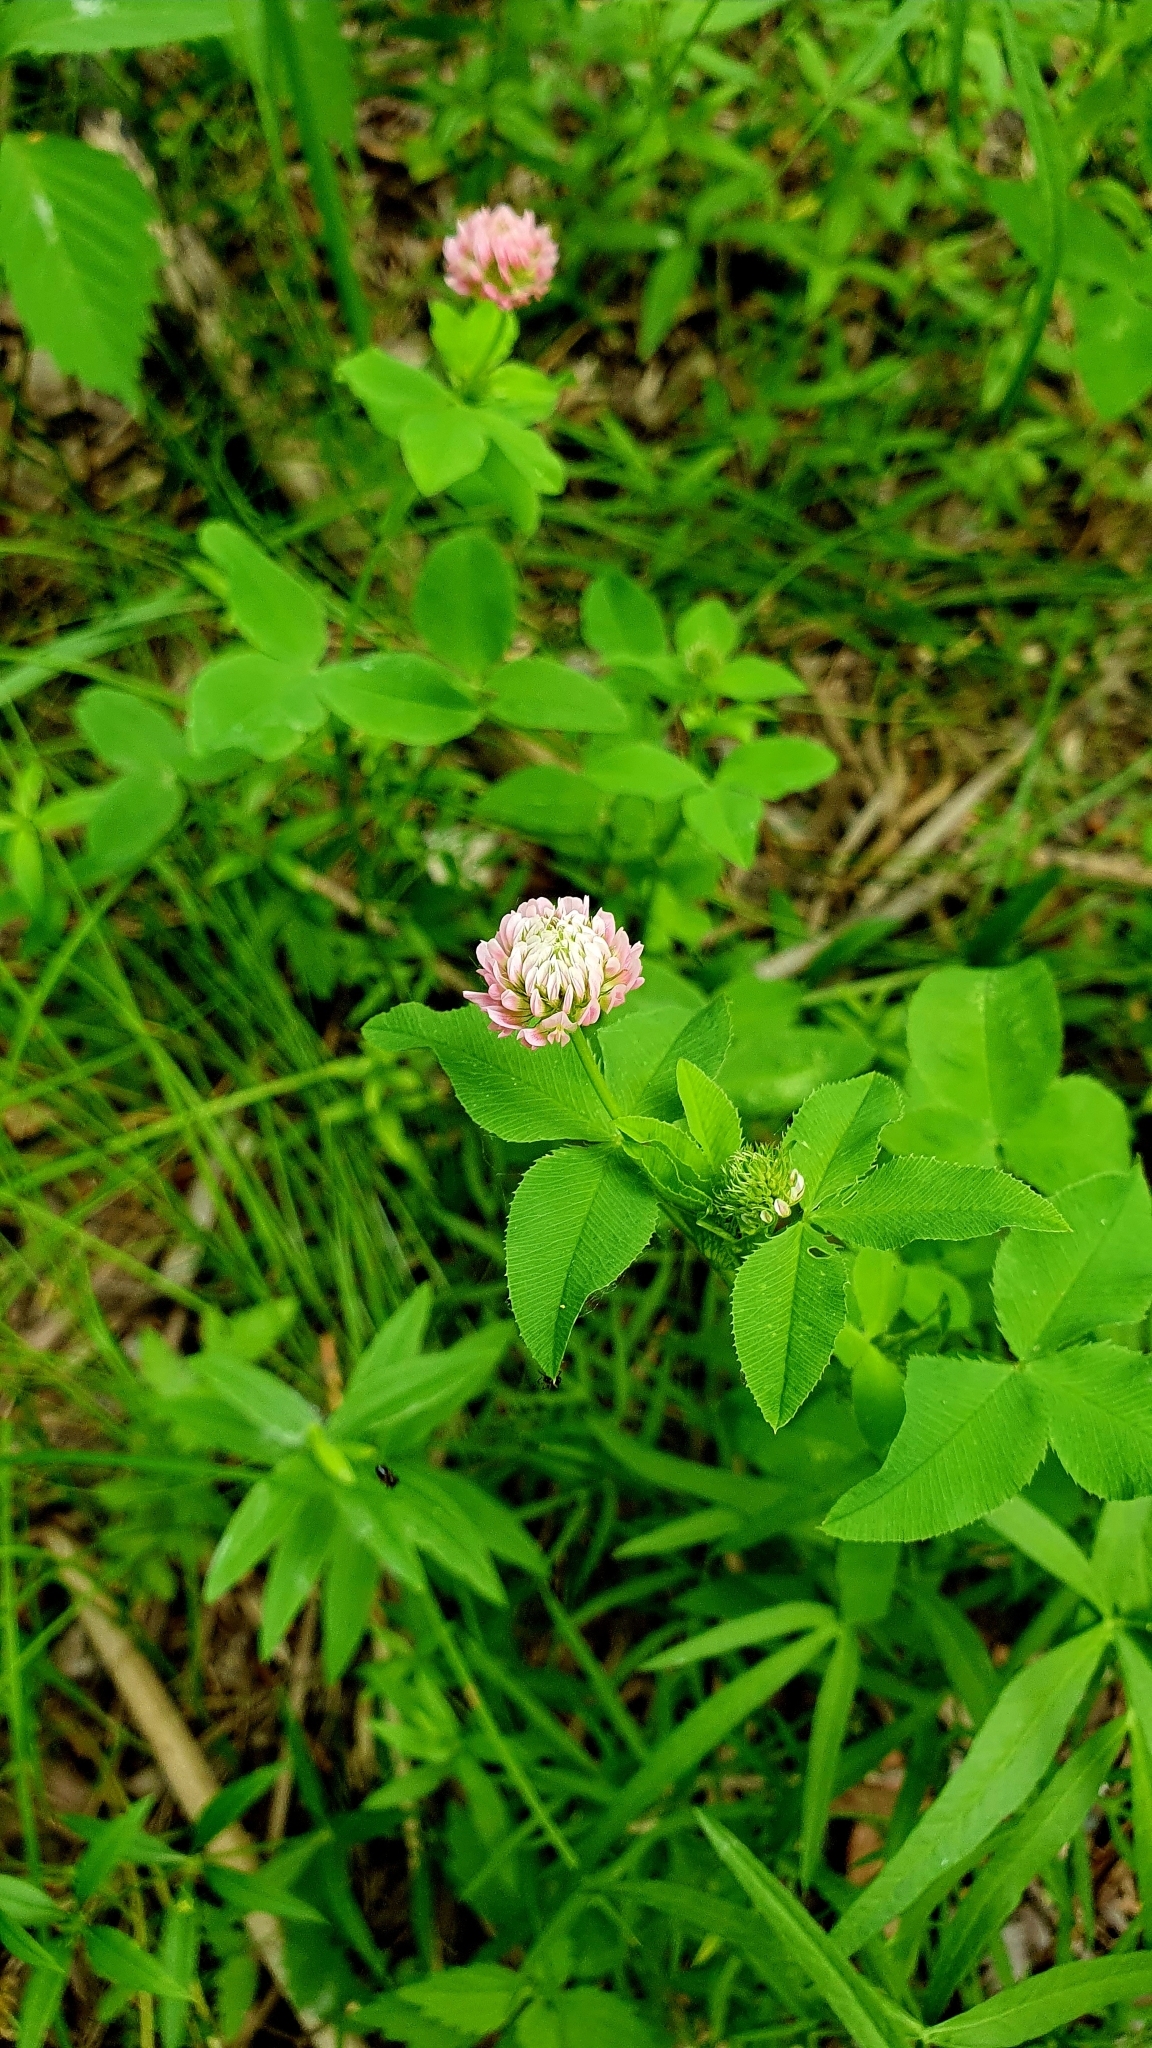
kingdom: Plantae
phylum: Tracheophyta
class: Magnoliopsida
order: Fabales
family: Fabaceae
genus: Trifolium
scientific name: Trifolium hybridum
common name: Alsike clover
